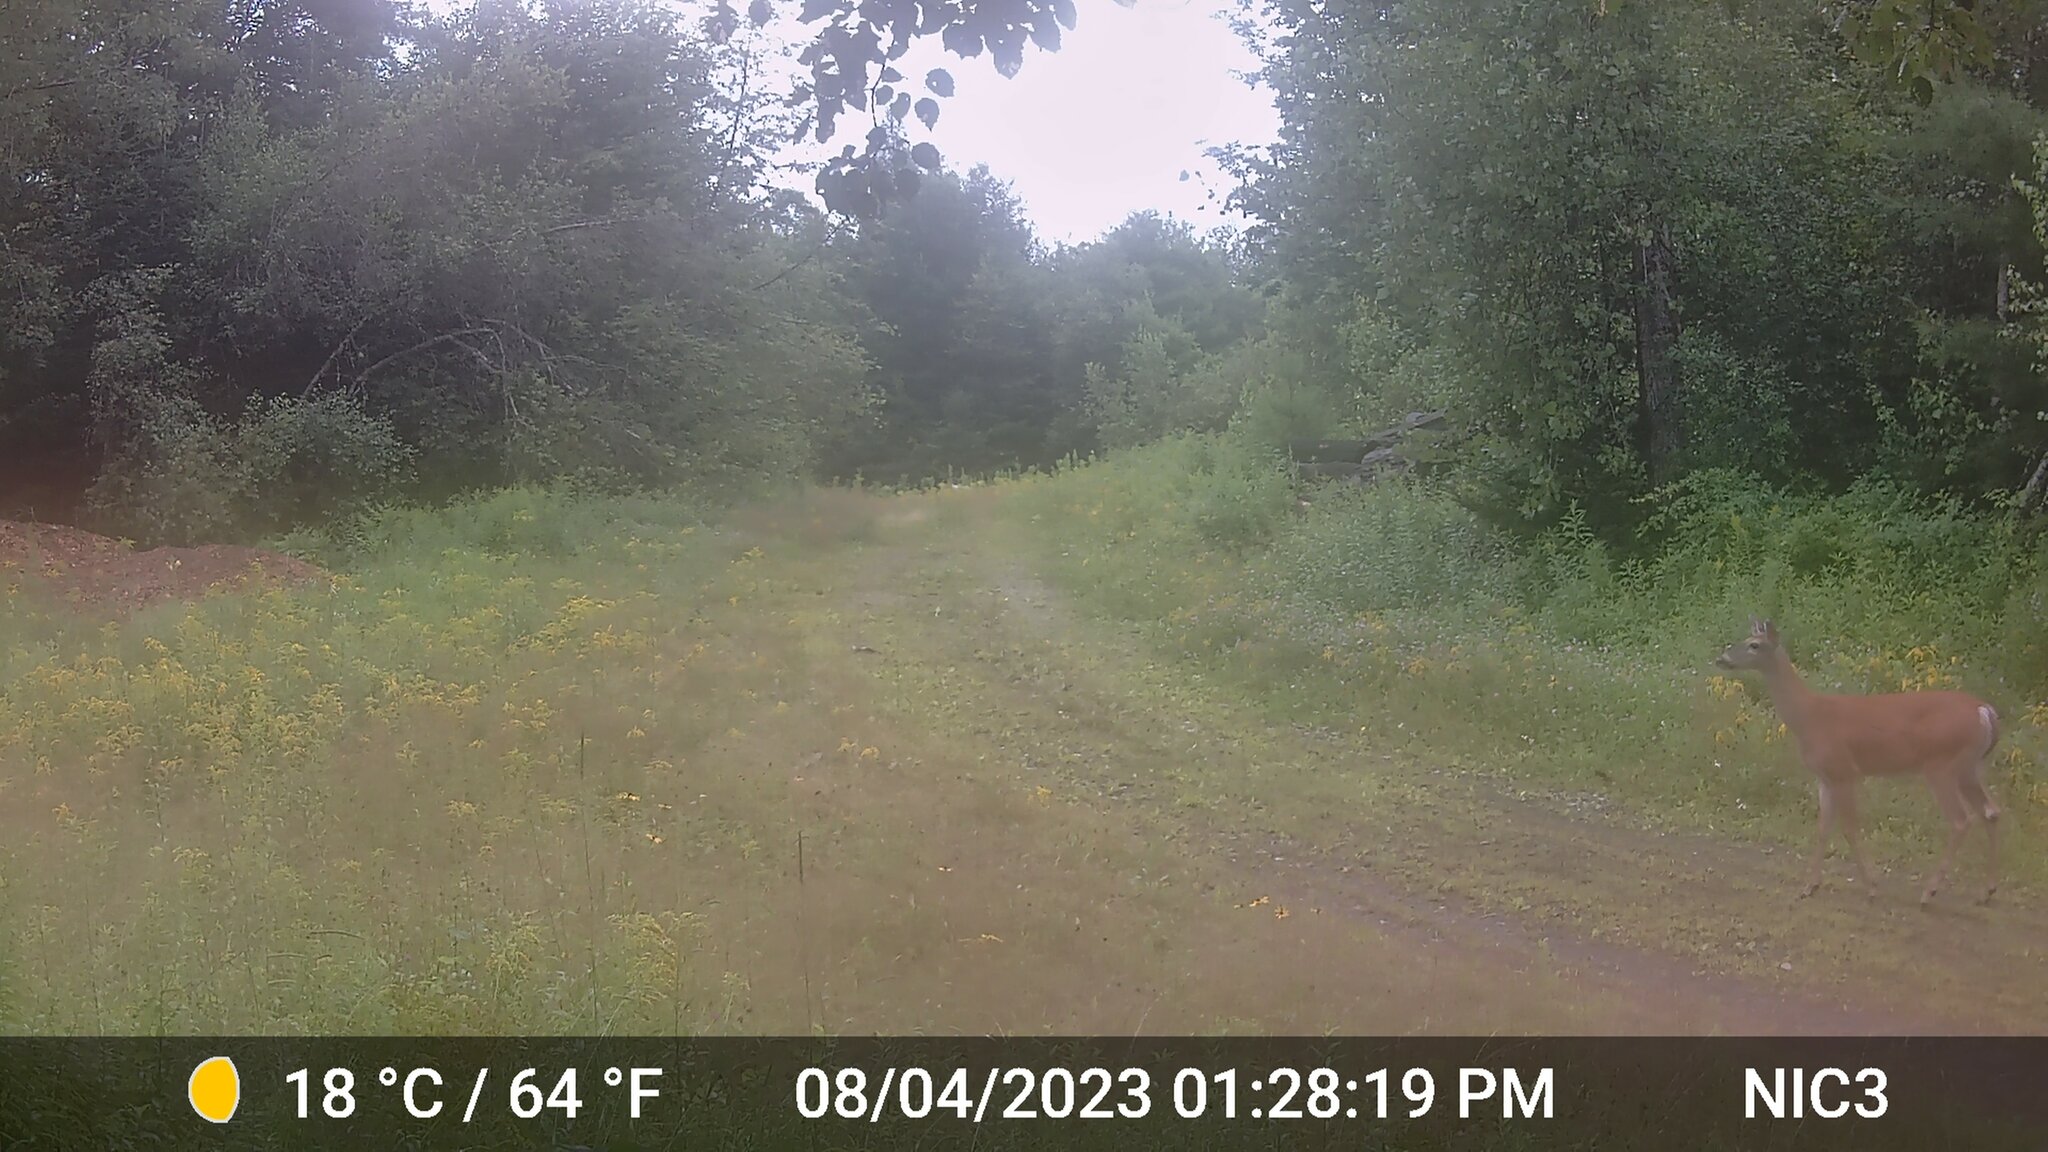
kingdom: Animalia
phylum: Chordata
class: Mammalia
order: Artiodactyla
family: Cervidae
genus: Odocoileus
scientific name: Odocoileus virginianus
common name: White-tailed deer
